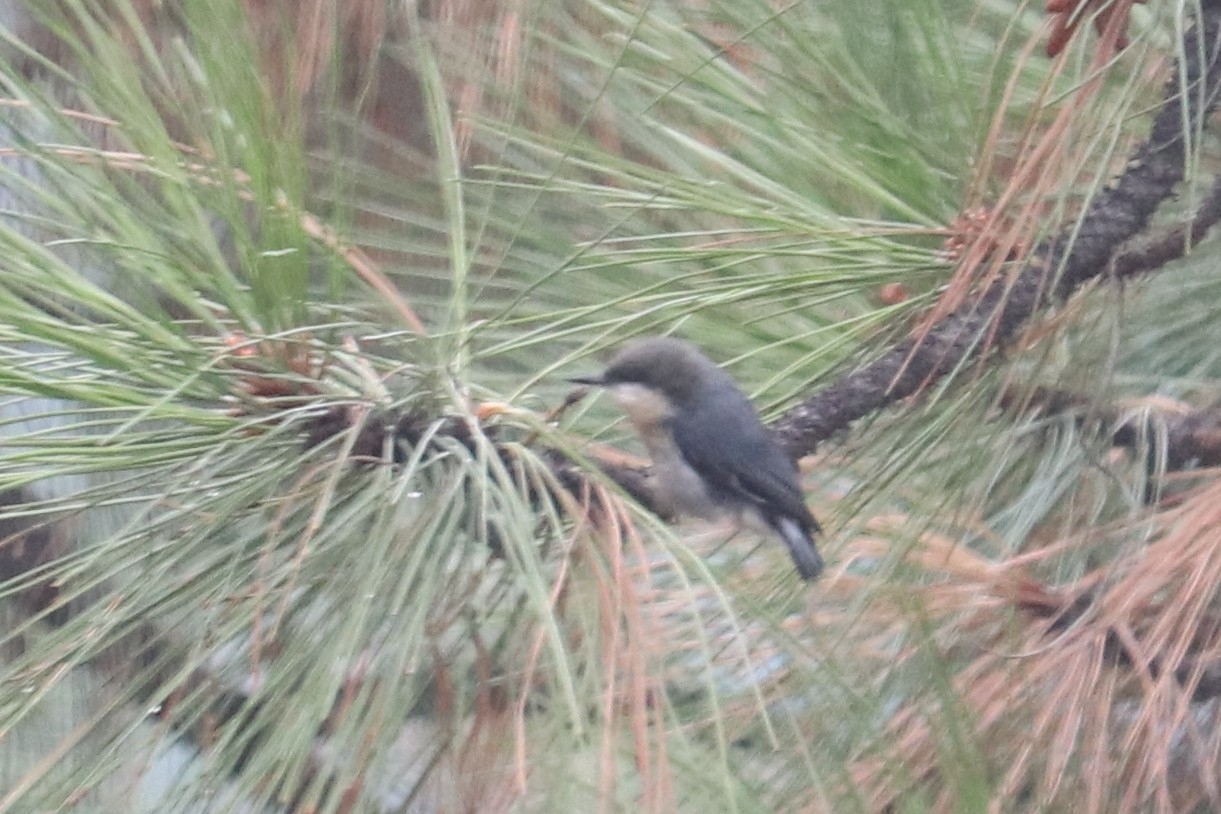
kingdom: Animalia
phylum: Chordata
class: Aves
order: Passeriformes
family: Sittidae
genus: Sitta
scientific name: Sitta pygmaea
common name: Pygmy nuthatch
